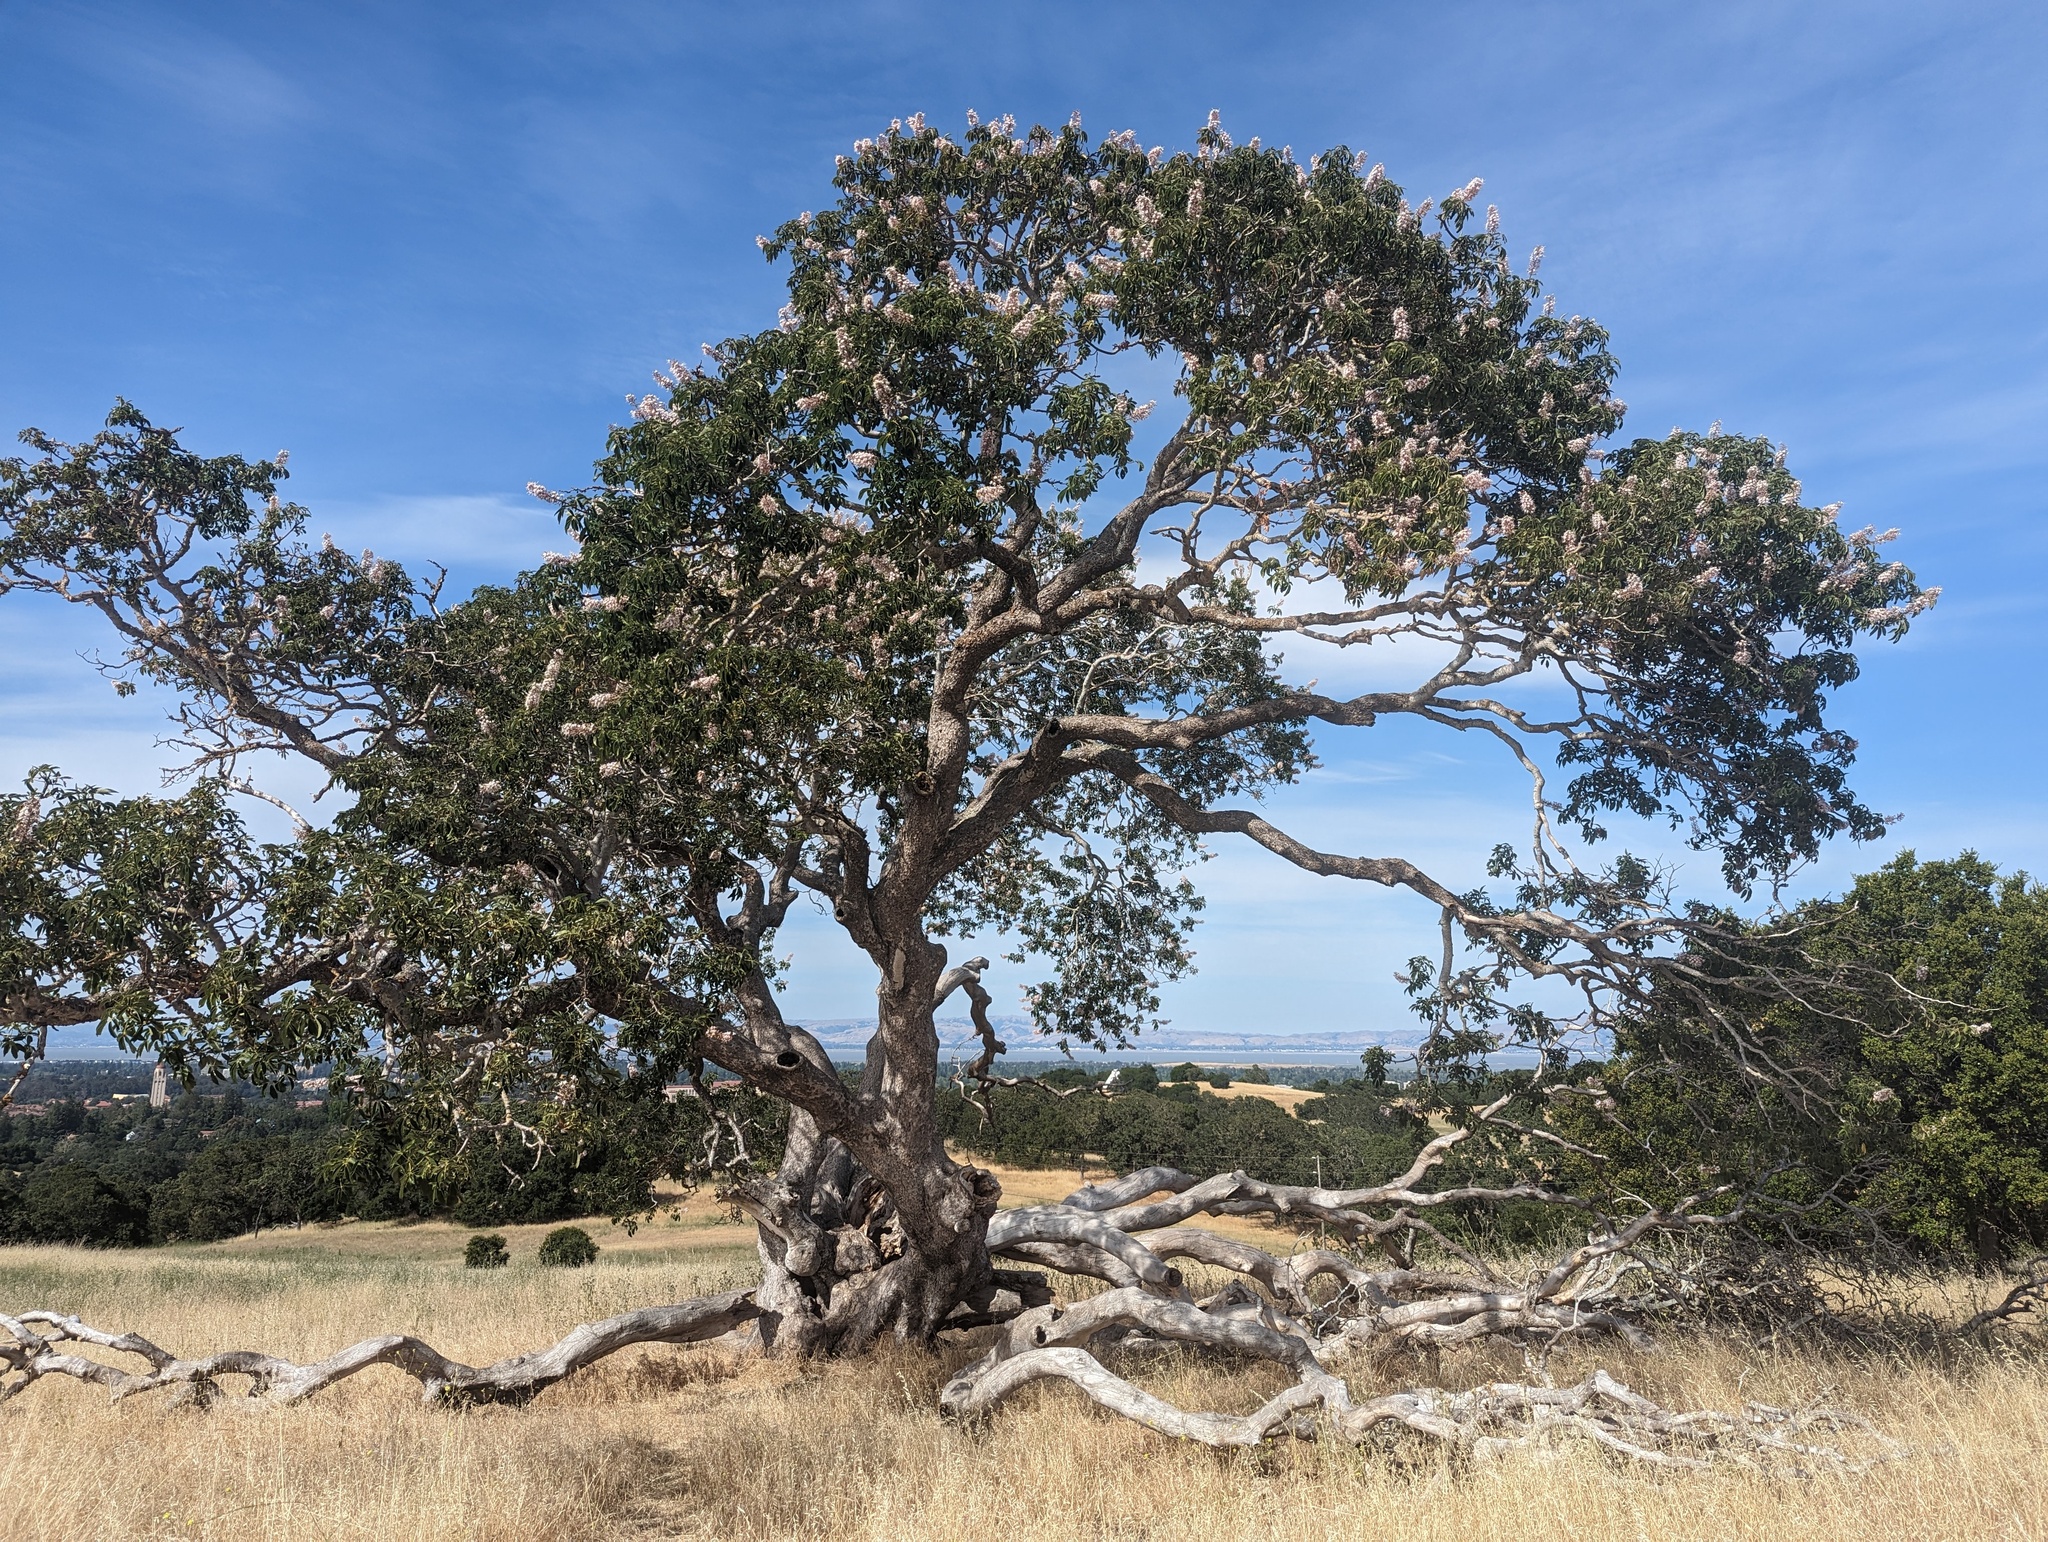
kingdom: Plantae
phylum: Tracheophyta
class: Magnoliopsida
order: Sapindales
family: Sapindaceae
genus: Aesculus
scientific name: Aesculus californica
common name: California buckeye
